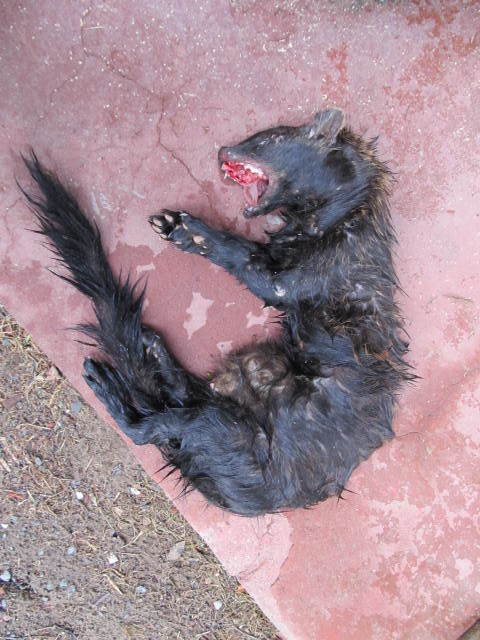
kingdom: Animalia
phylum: Chordata
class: Mammalia
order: Carnivora
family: Mustelidae
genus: Pekania
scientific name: Pekania pennanti
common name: Fisher
